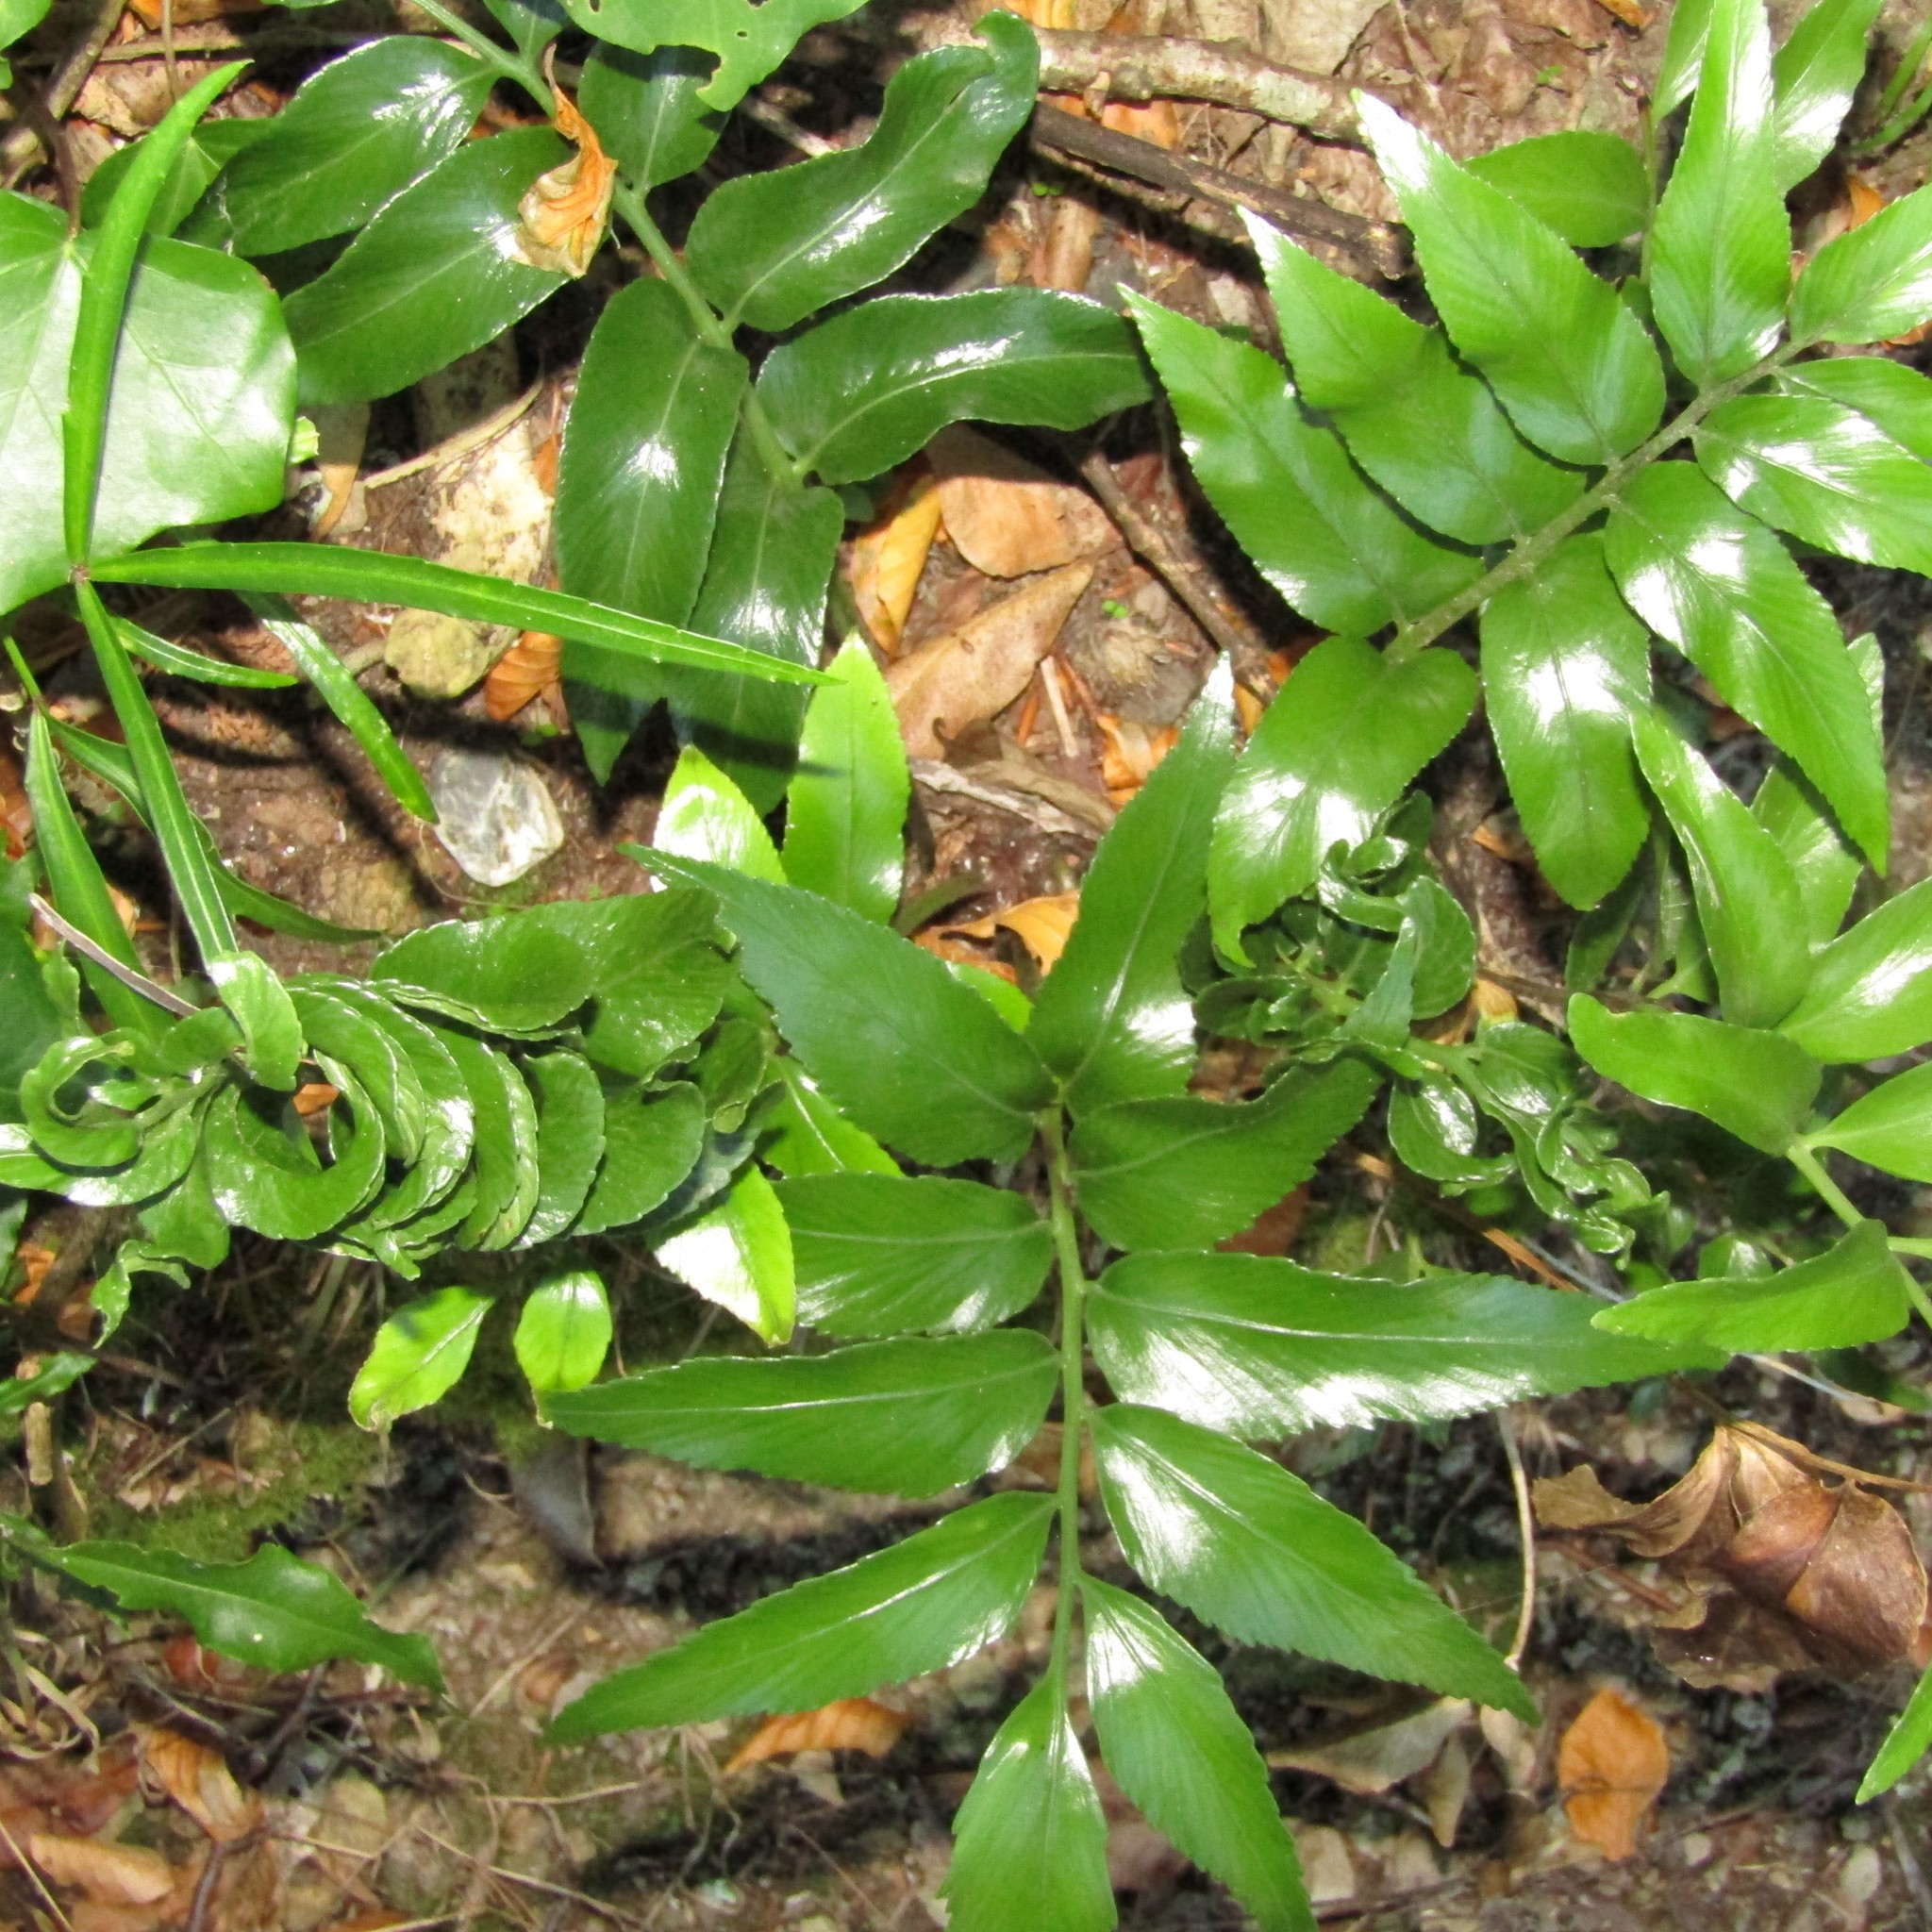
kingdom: Plantae
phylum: Tracheophyta
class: Polypodiopsida
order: Polypodiales
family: Aspleniaceae
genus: Asplenium
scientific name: Asplenium oblongifolium
